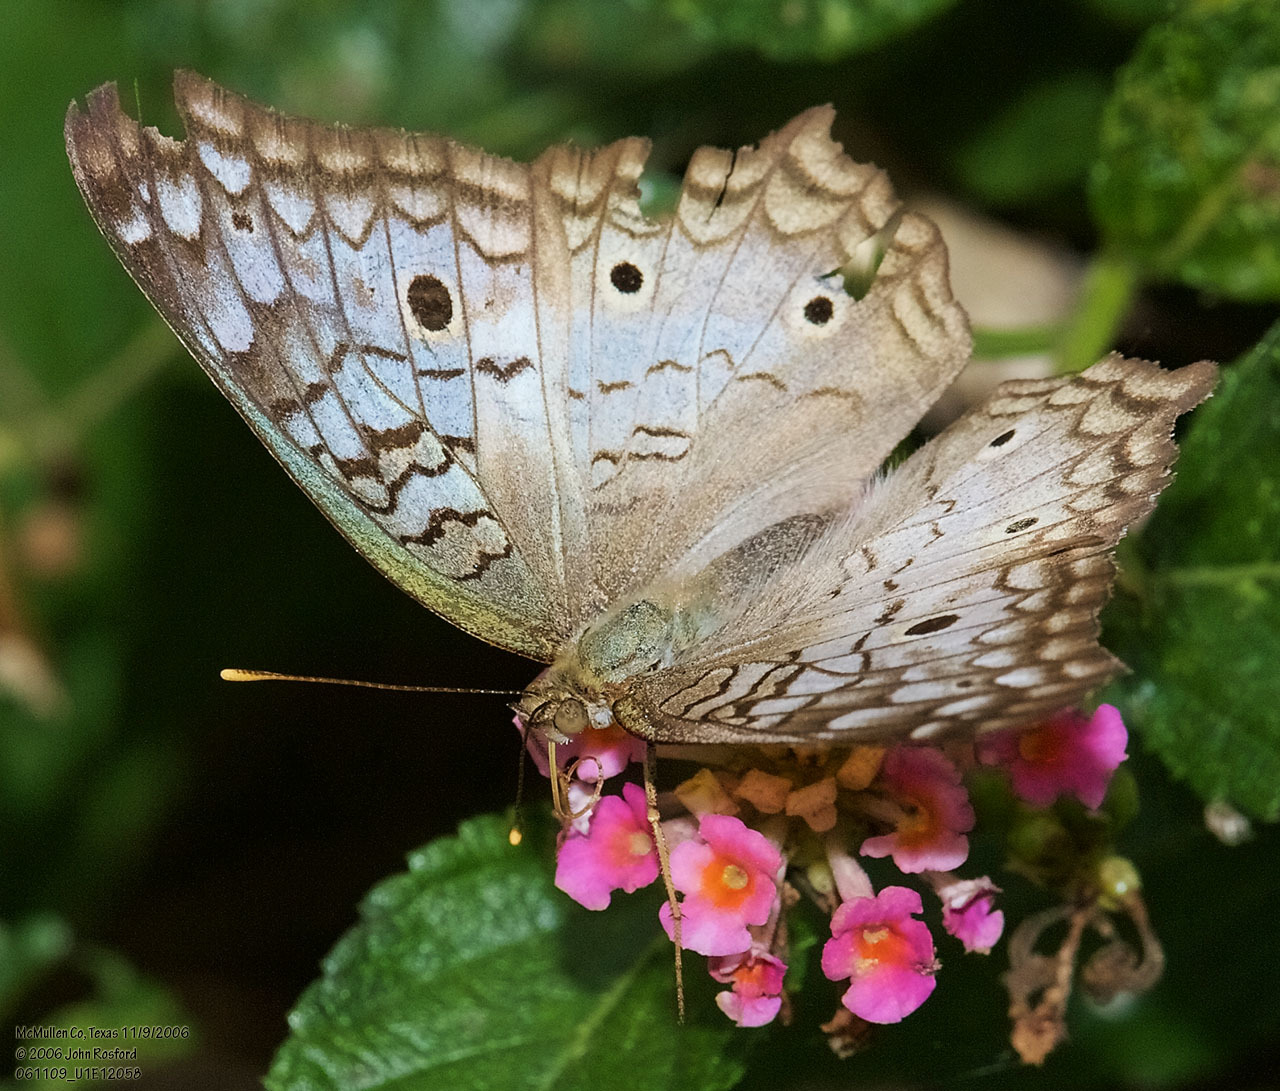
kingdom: Animalia
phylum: Arthropoda
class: Insecta
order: Lepidoptera
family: Nymphalidae
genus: Anartia
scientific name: Anartia jatrophae
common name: White peacock
